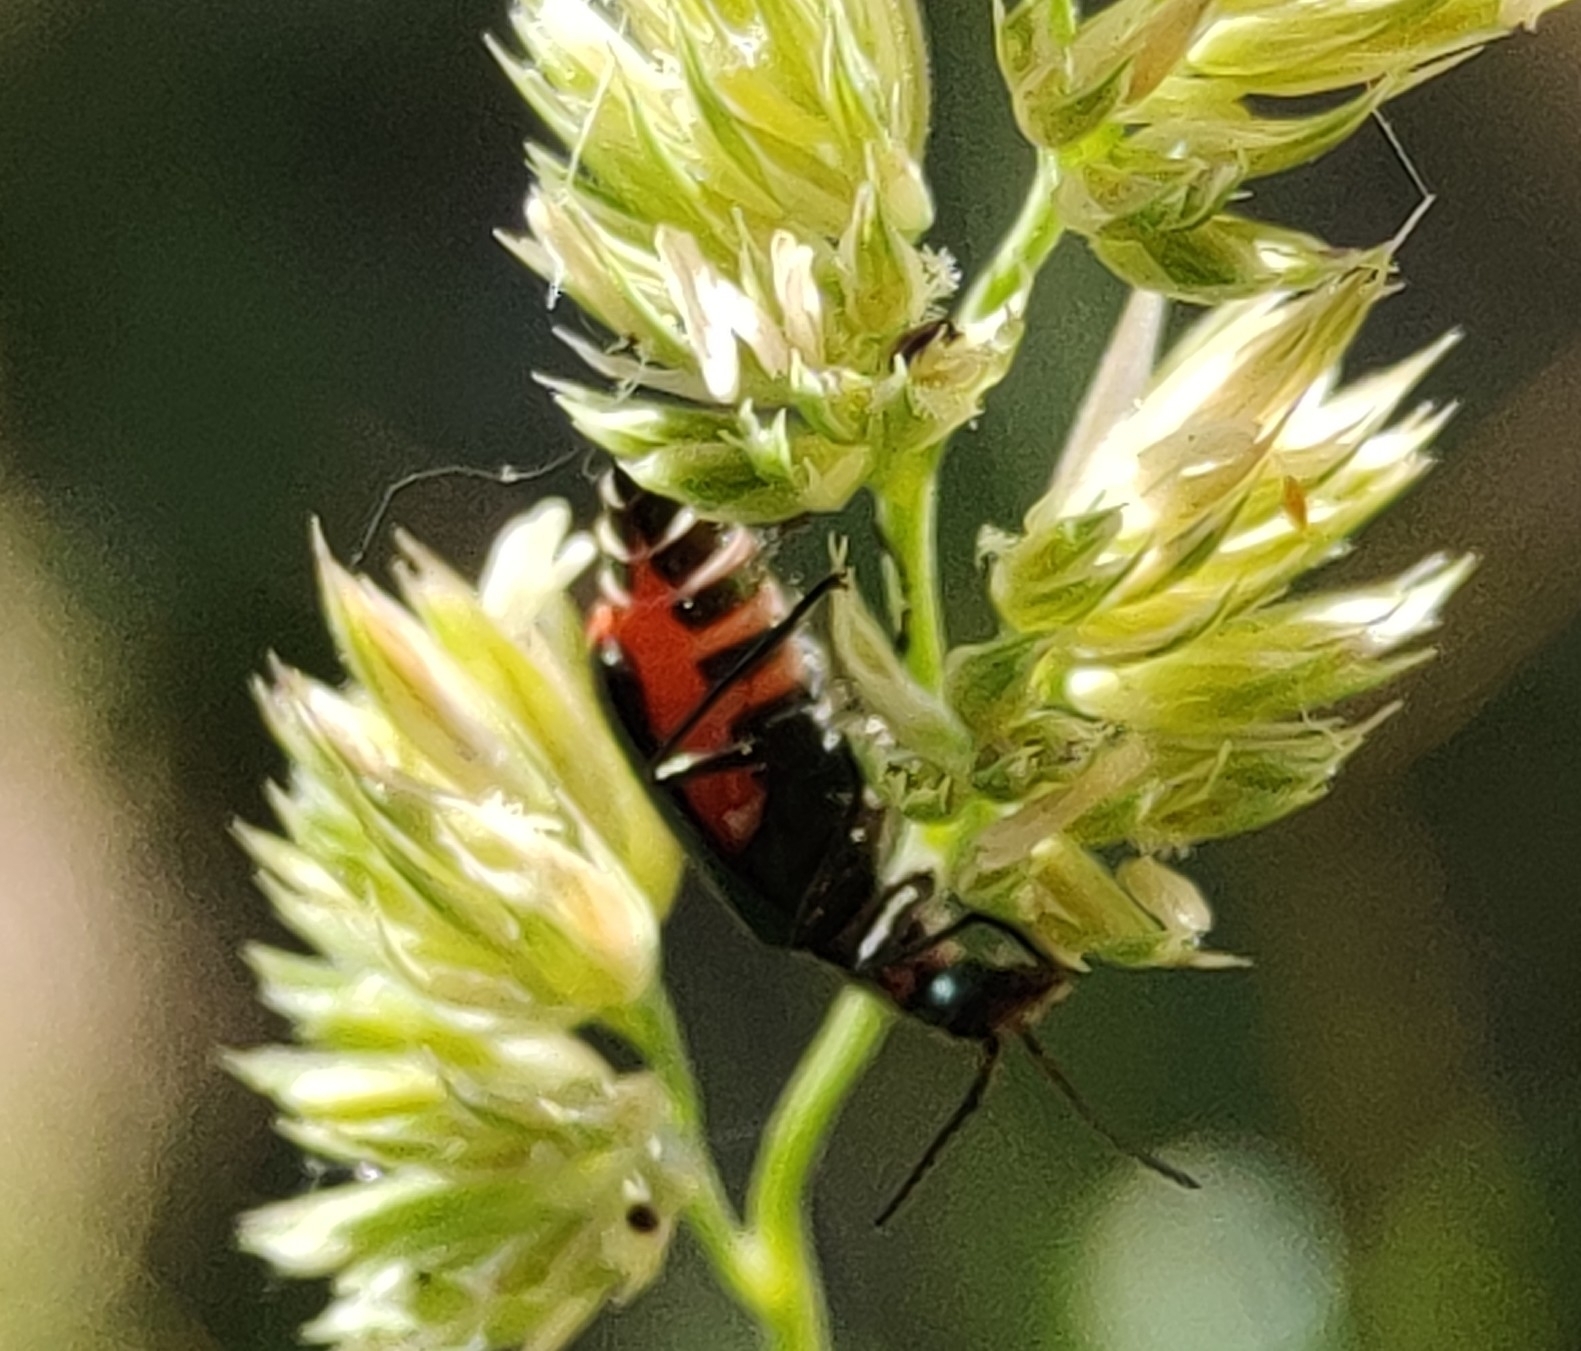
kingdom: Animalia
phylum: Arthropoda
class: Insecta
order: Coleoptera
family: Melyridae
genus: Malachius
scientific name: Malachius bipustulatus
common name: Malachite beetle
